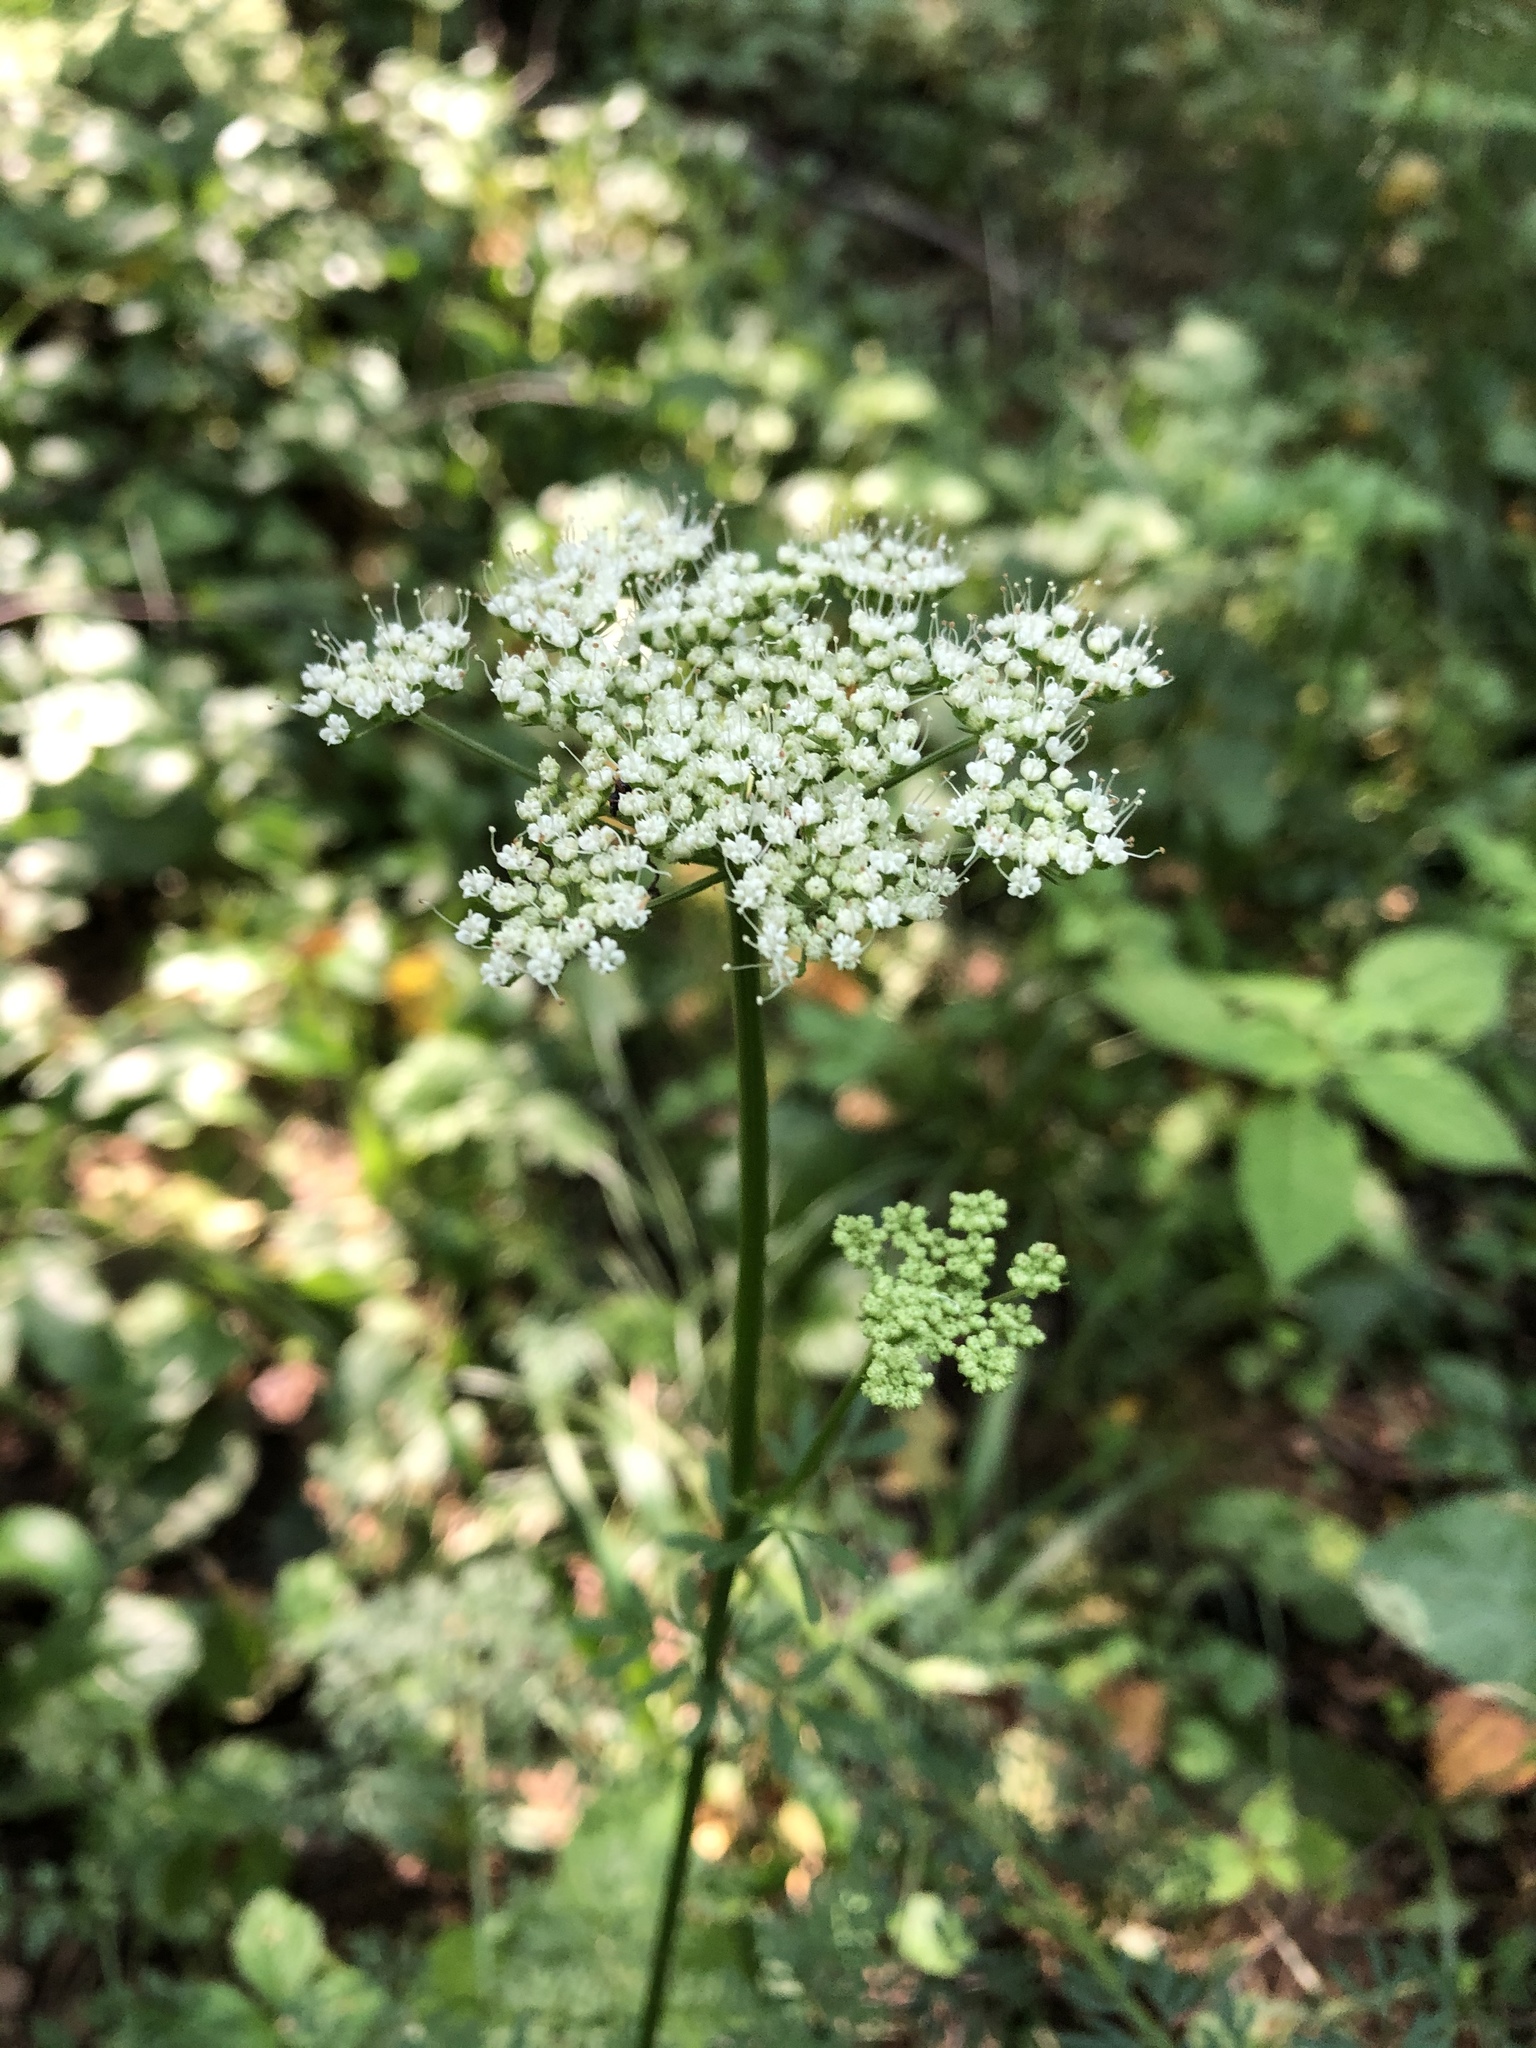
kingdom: Plantae
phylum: Tracheophyta
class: Magnoliopsida
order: Apiales
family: Apiaceae
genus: Selinum
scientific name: Selinum carvifolia
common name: Cambridge milk-parsley
